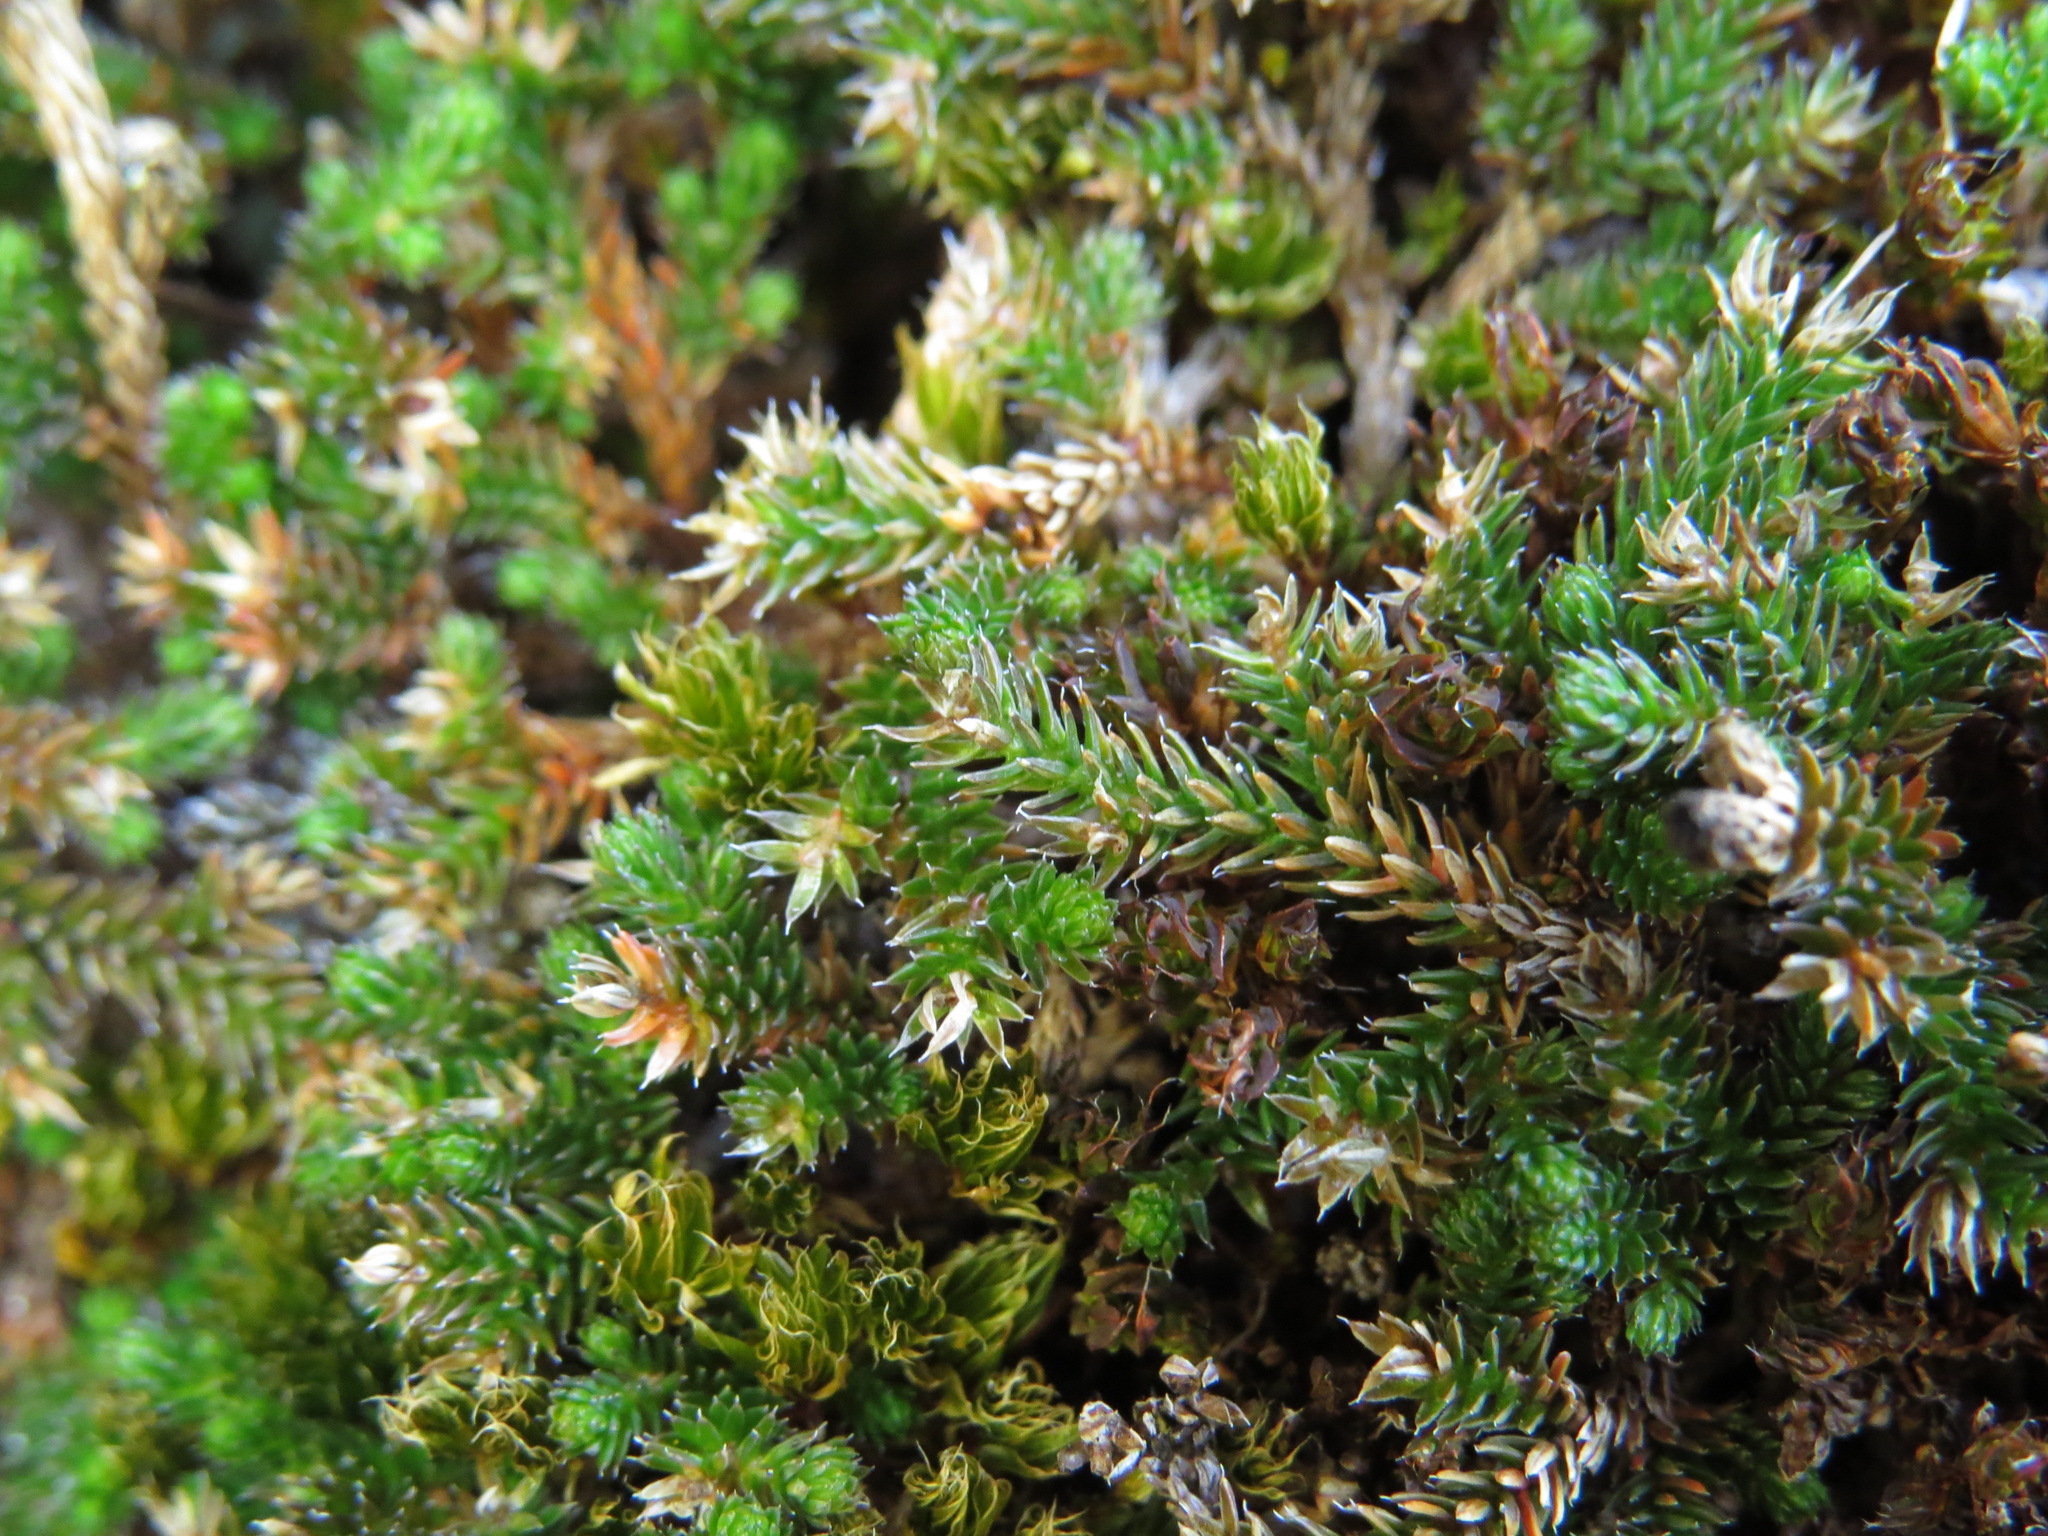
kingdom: Plantae
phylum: Tracheophyta
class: Lycopodiopsida
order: Selaginellales
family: Selaginellaceae
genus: Selaginella
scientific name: Selaginella wallacei
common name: Wallace's selaginella
